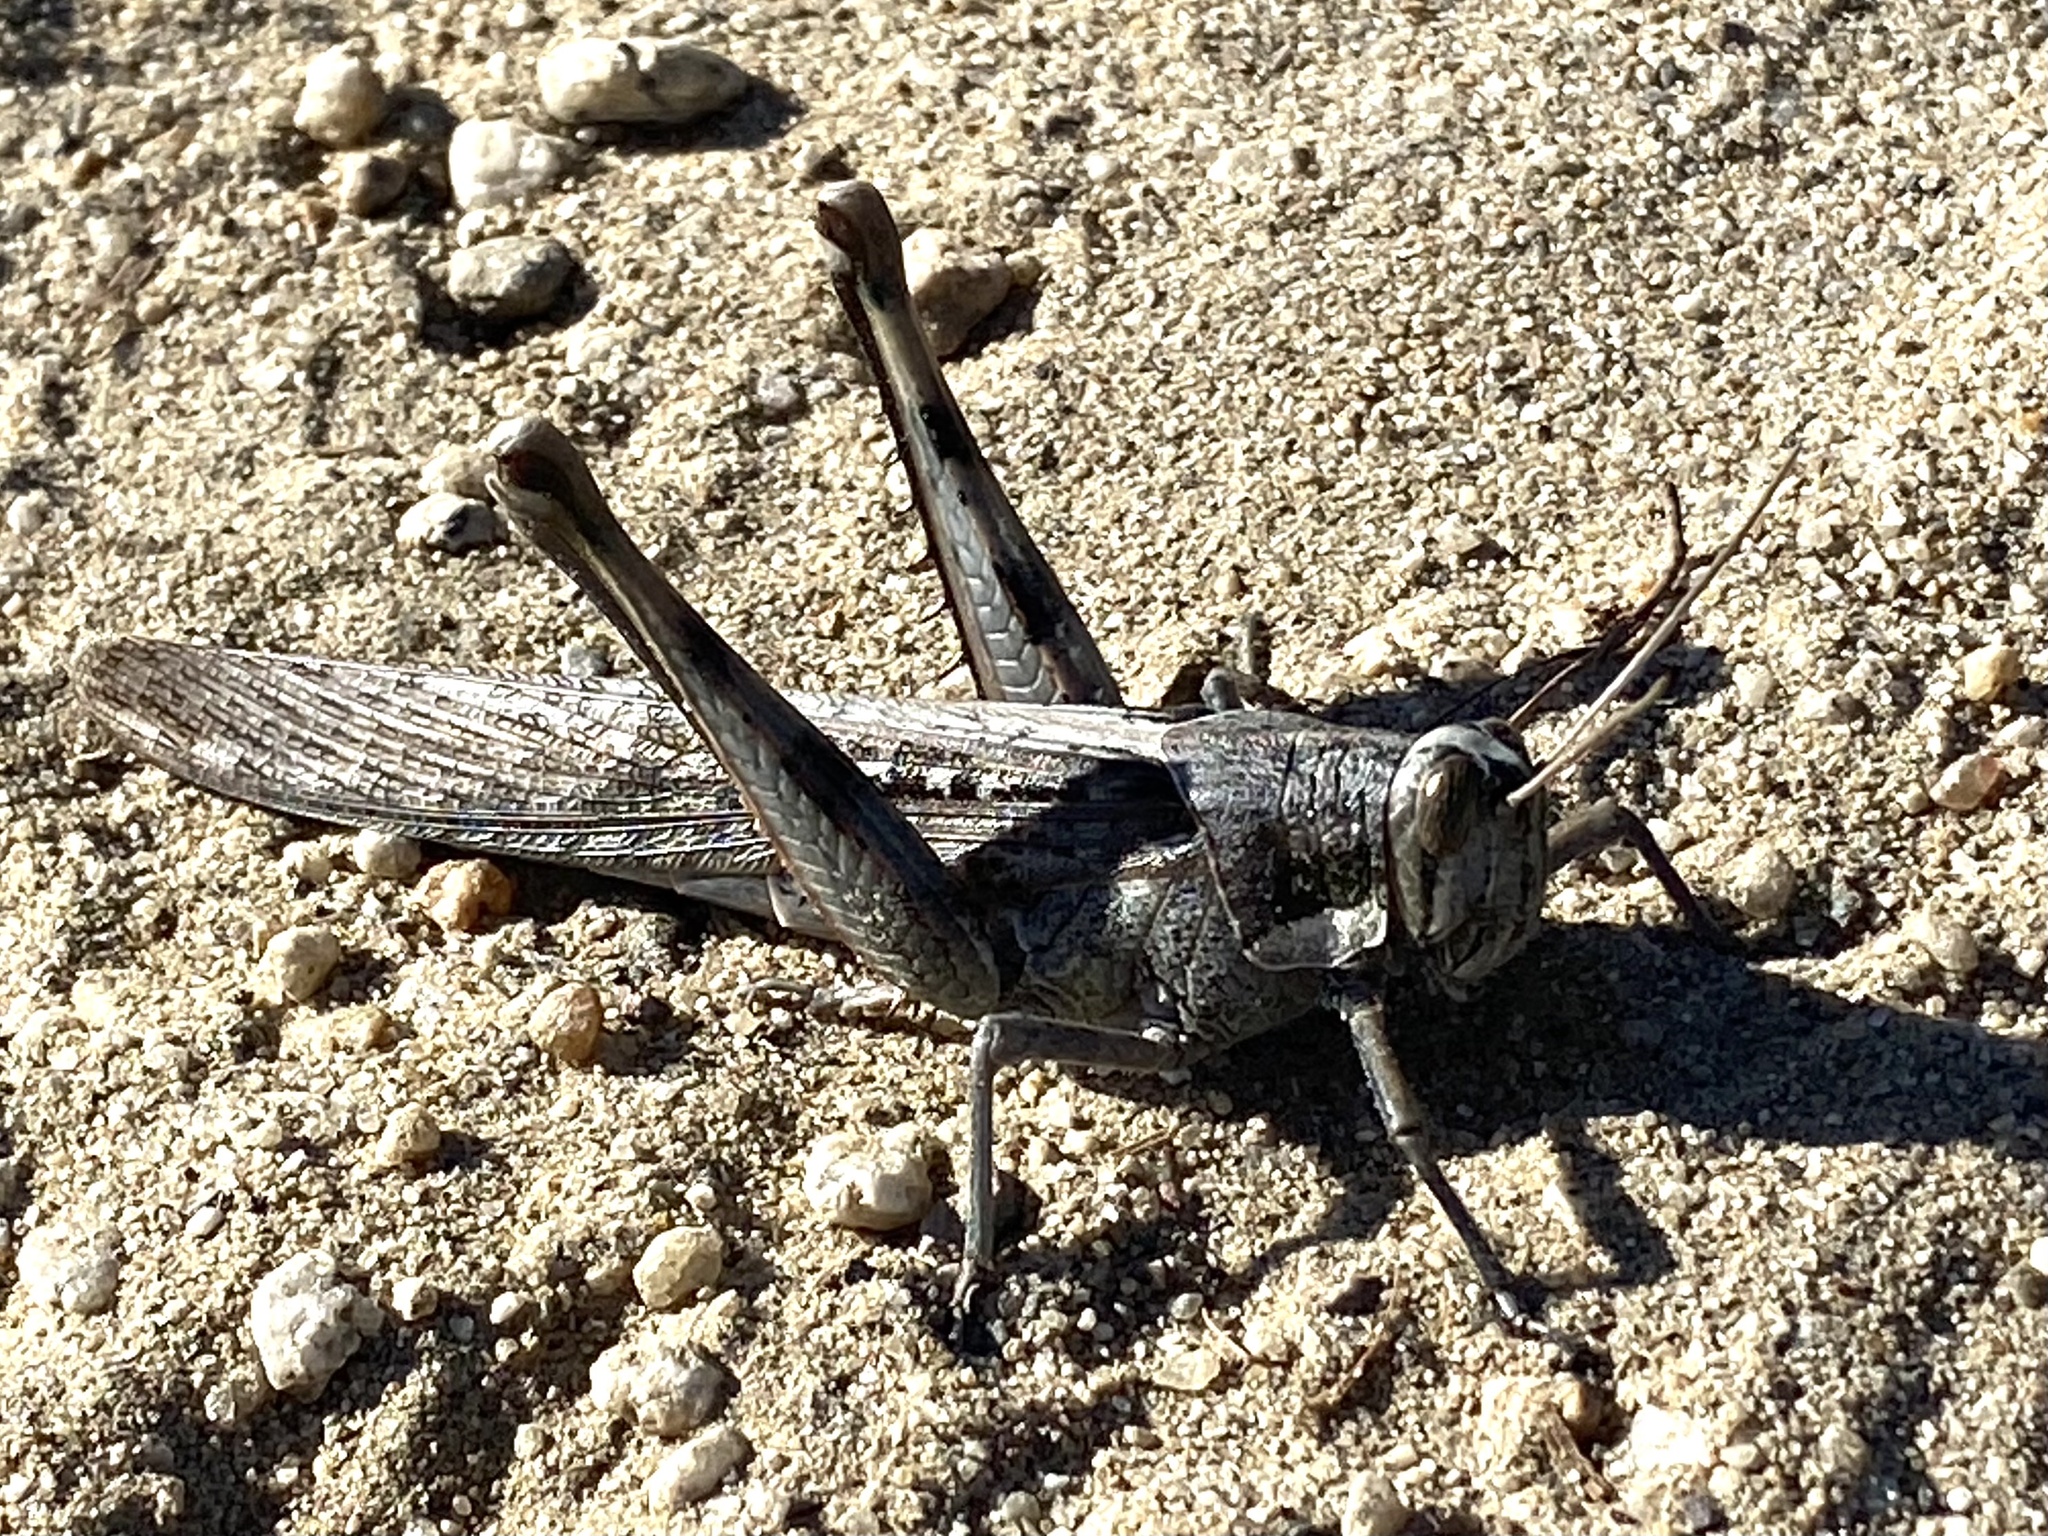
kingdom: Animalia
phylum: Arthropoda
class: Insecta
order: Orthoptera
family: Acrididae
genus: Schistocerca
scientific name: Schistocerca nitens
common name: Vagrant grasshopper
